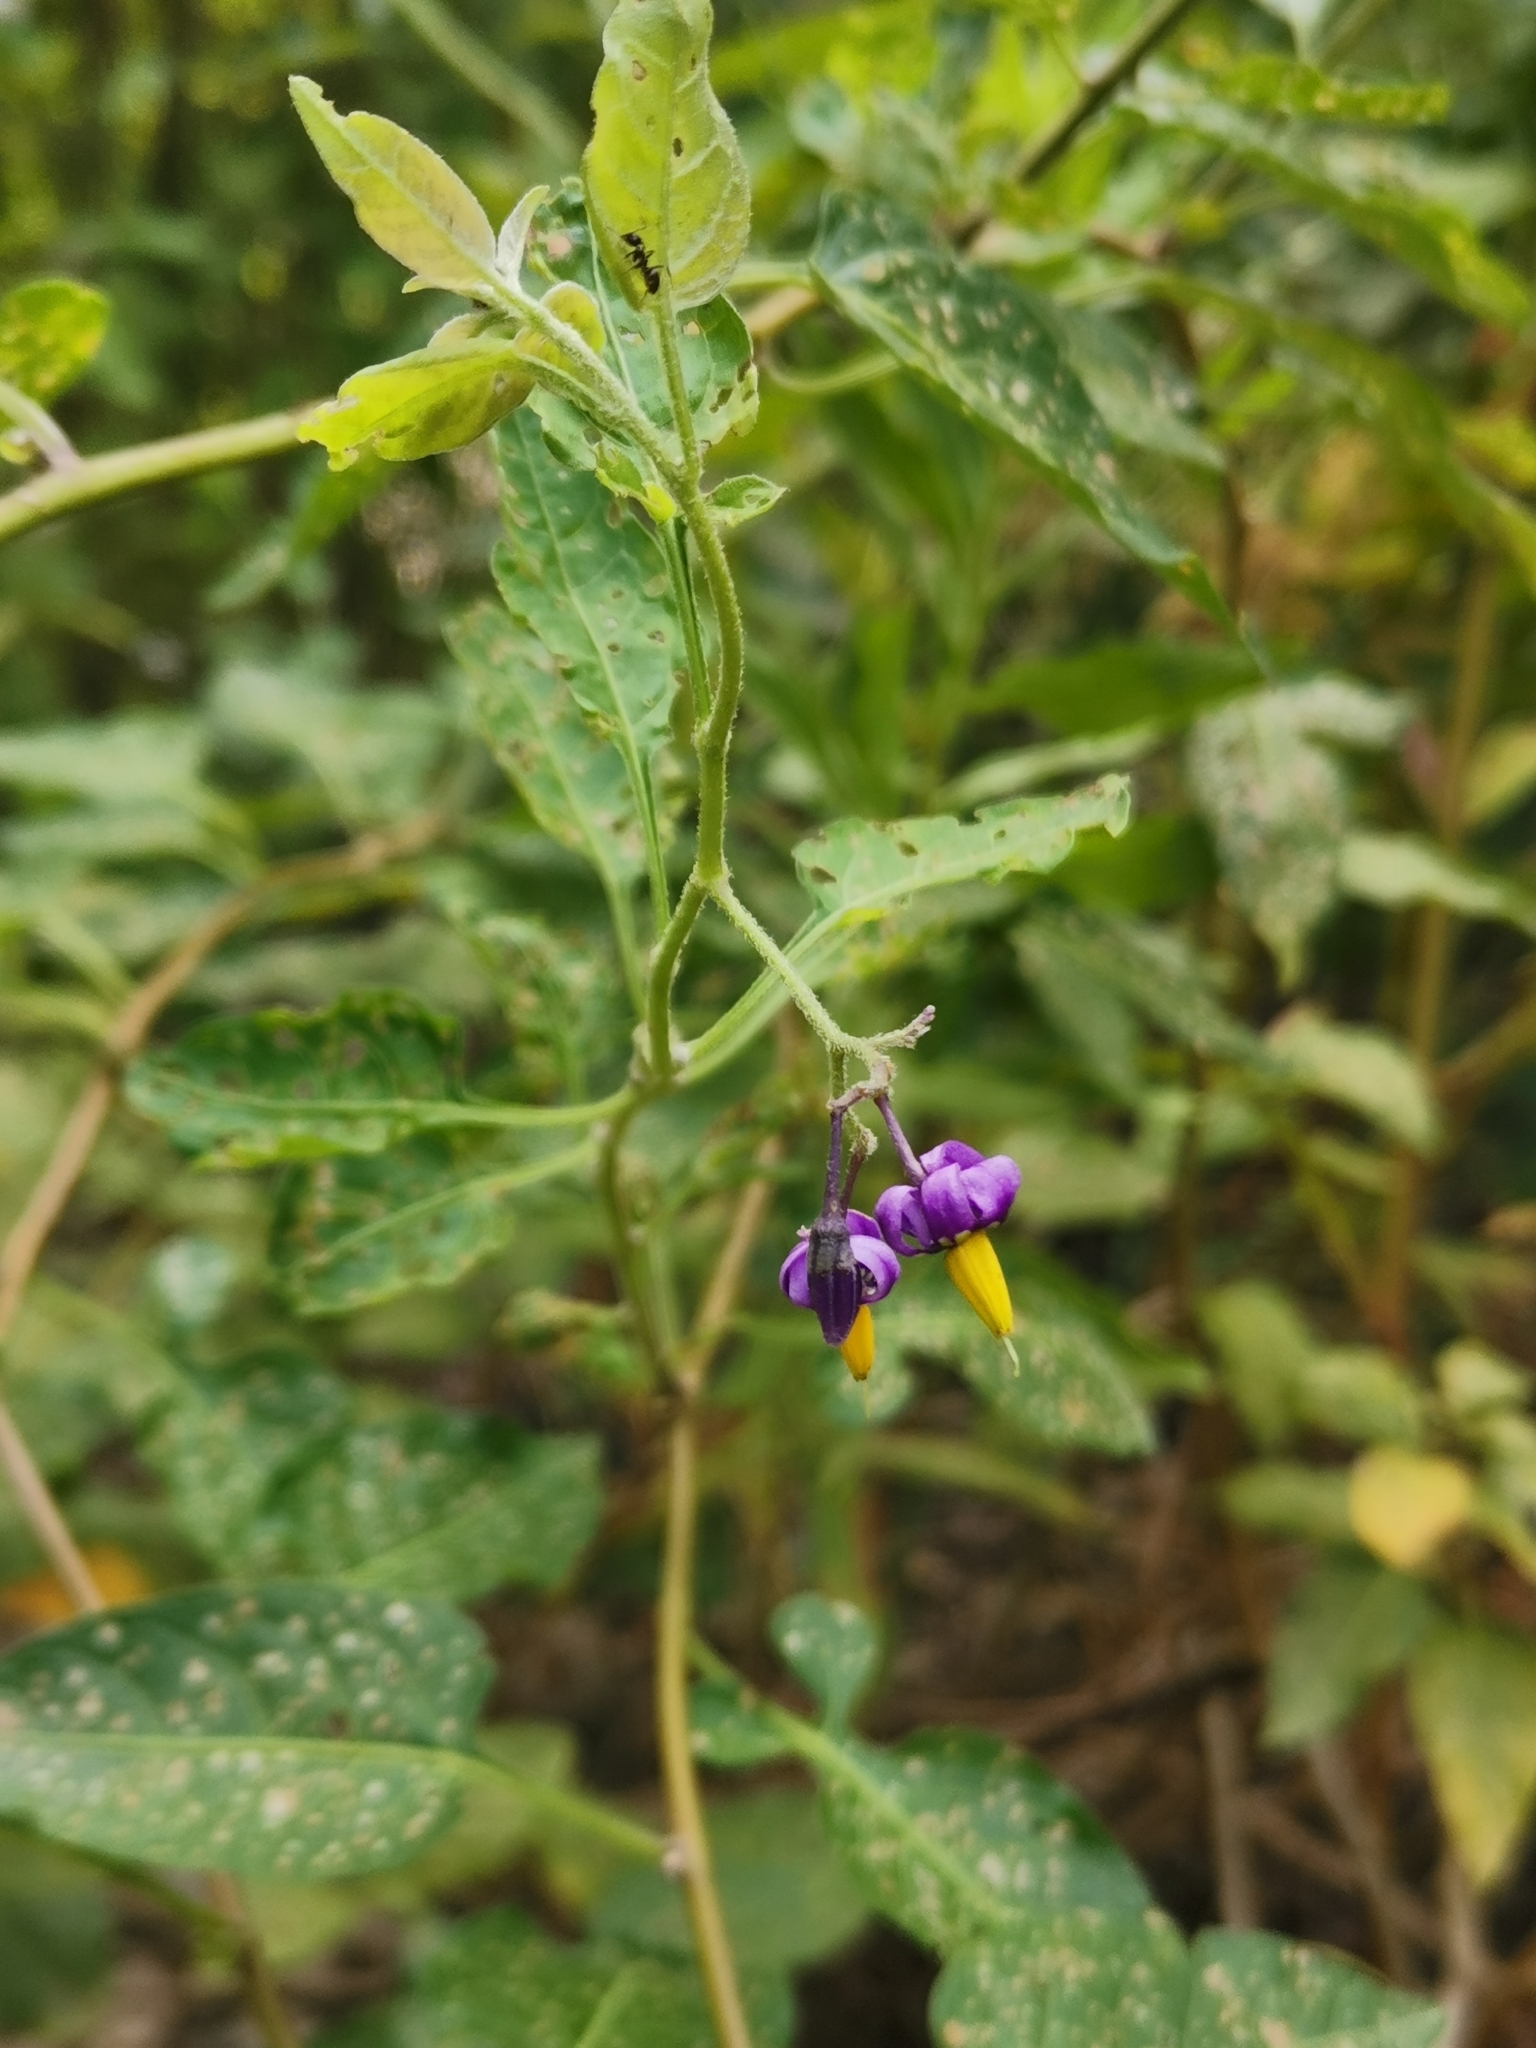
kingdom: Plantae
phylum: Tracheophyta
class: Magnoliopsida
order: Solanales
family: Solanaceae
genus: Solanum
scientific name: Solanum dulcamara
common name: Climbing nightshade
